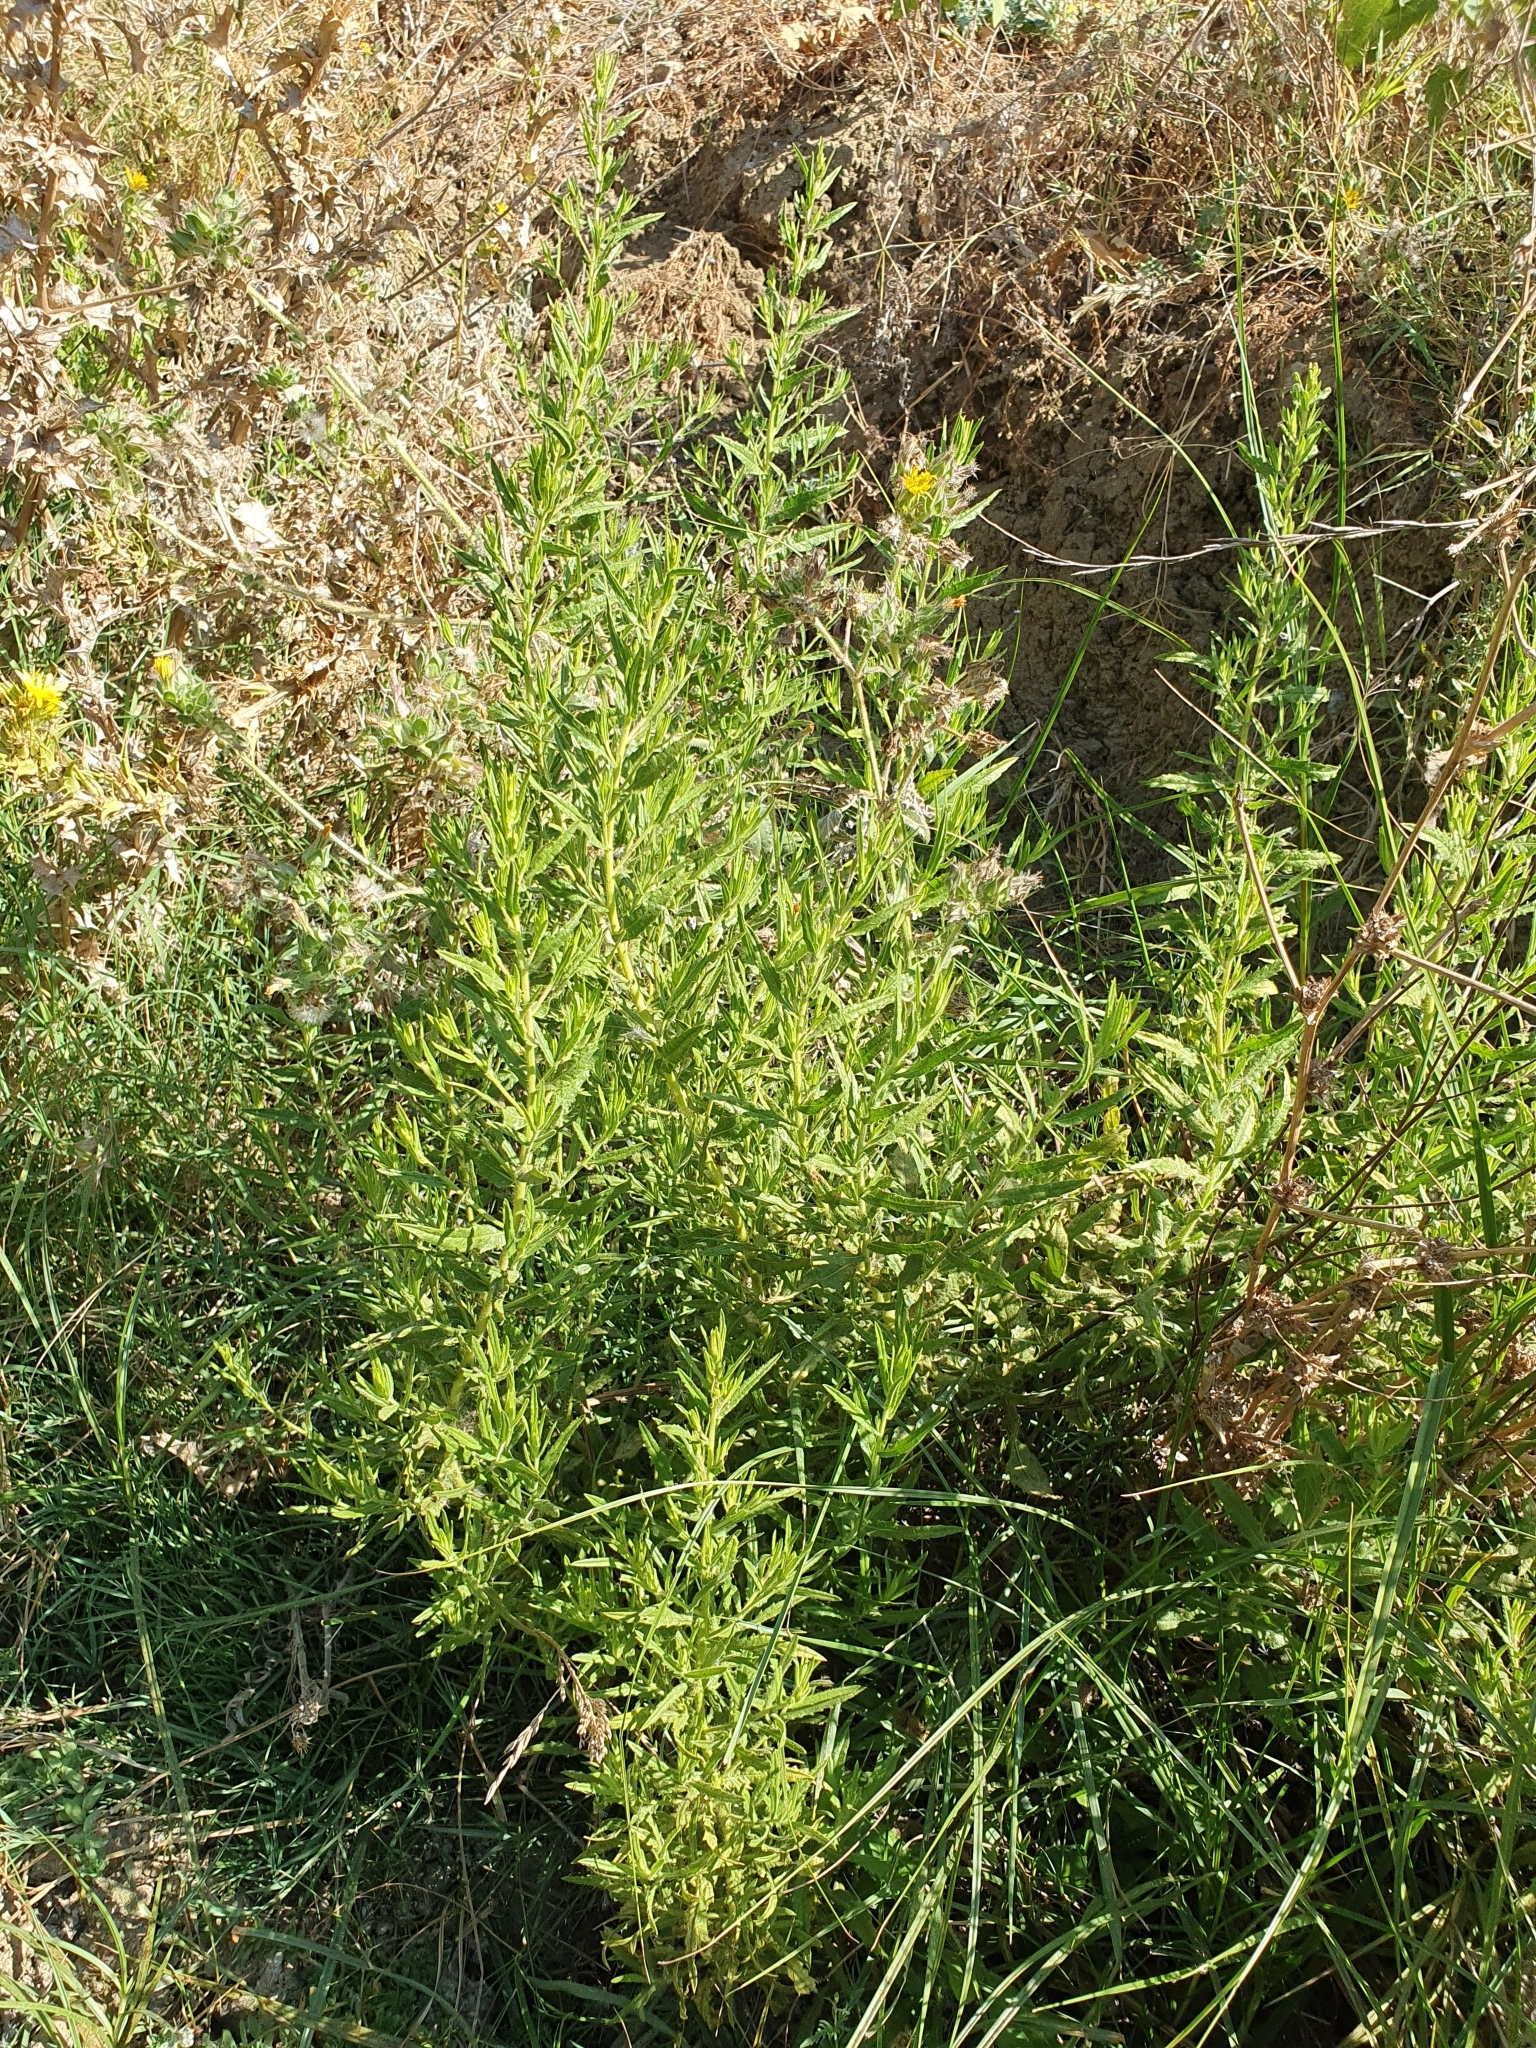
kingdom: Plantae
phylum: Tracheophyta
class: Magnoliopsida
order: Asterales
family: Asteraceae
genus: Dittrichia
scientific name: Dittrichia viscosa
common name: Woody fleabane
